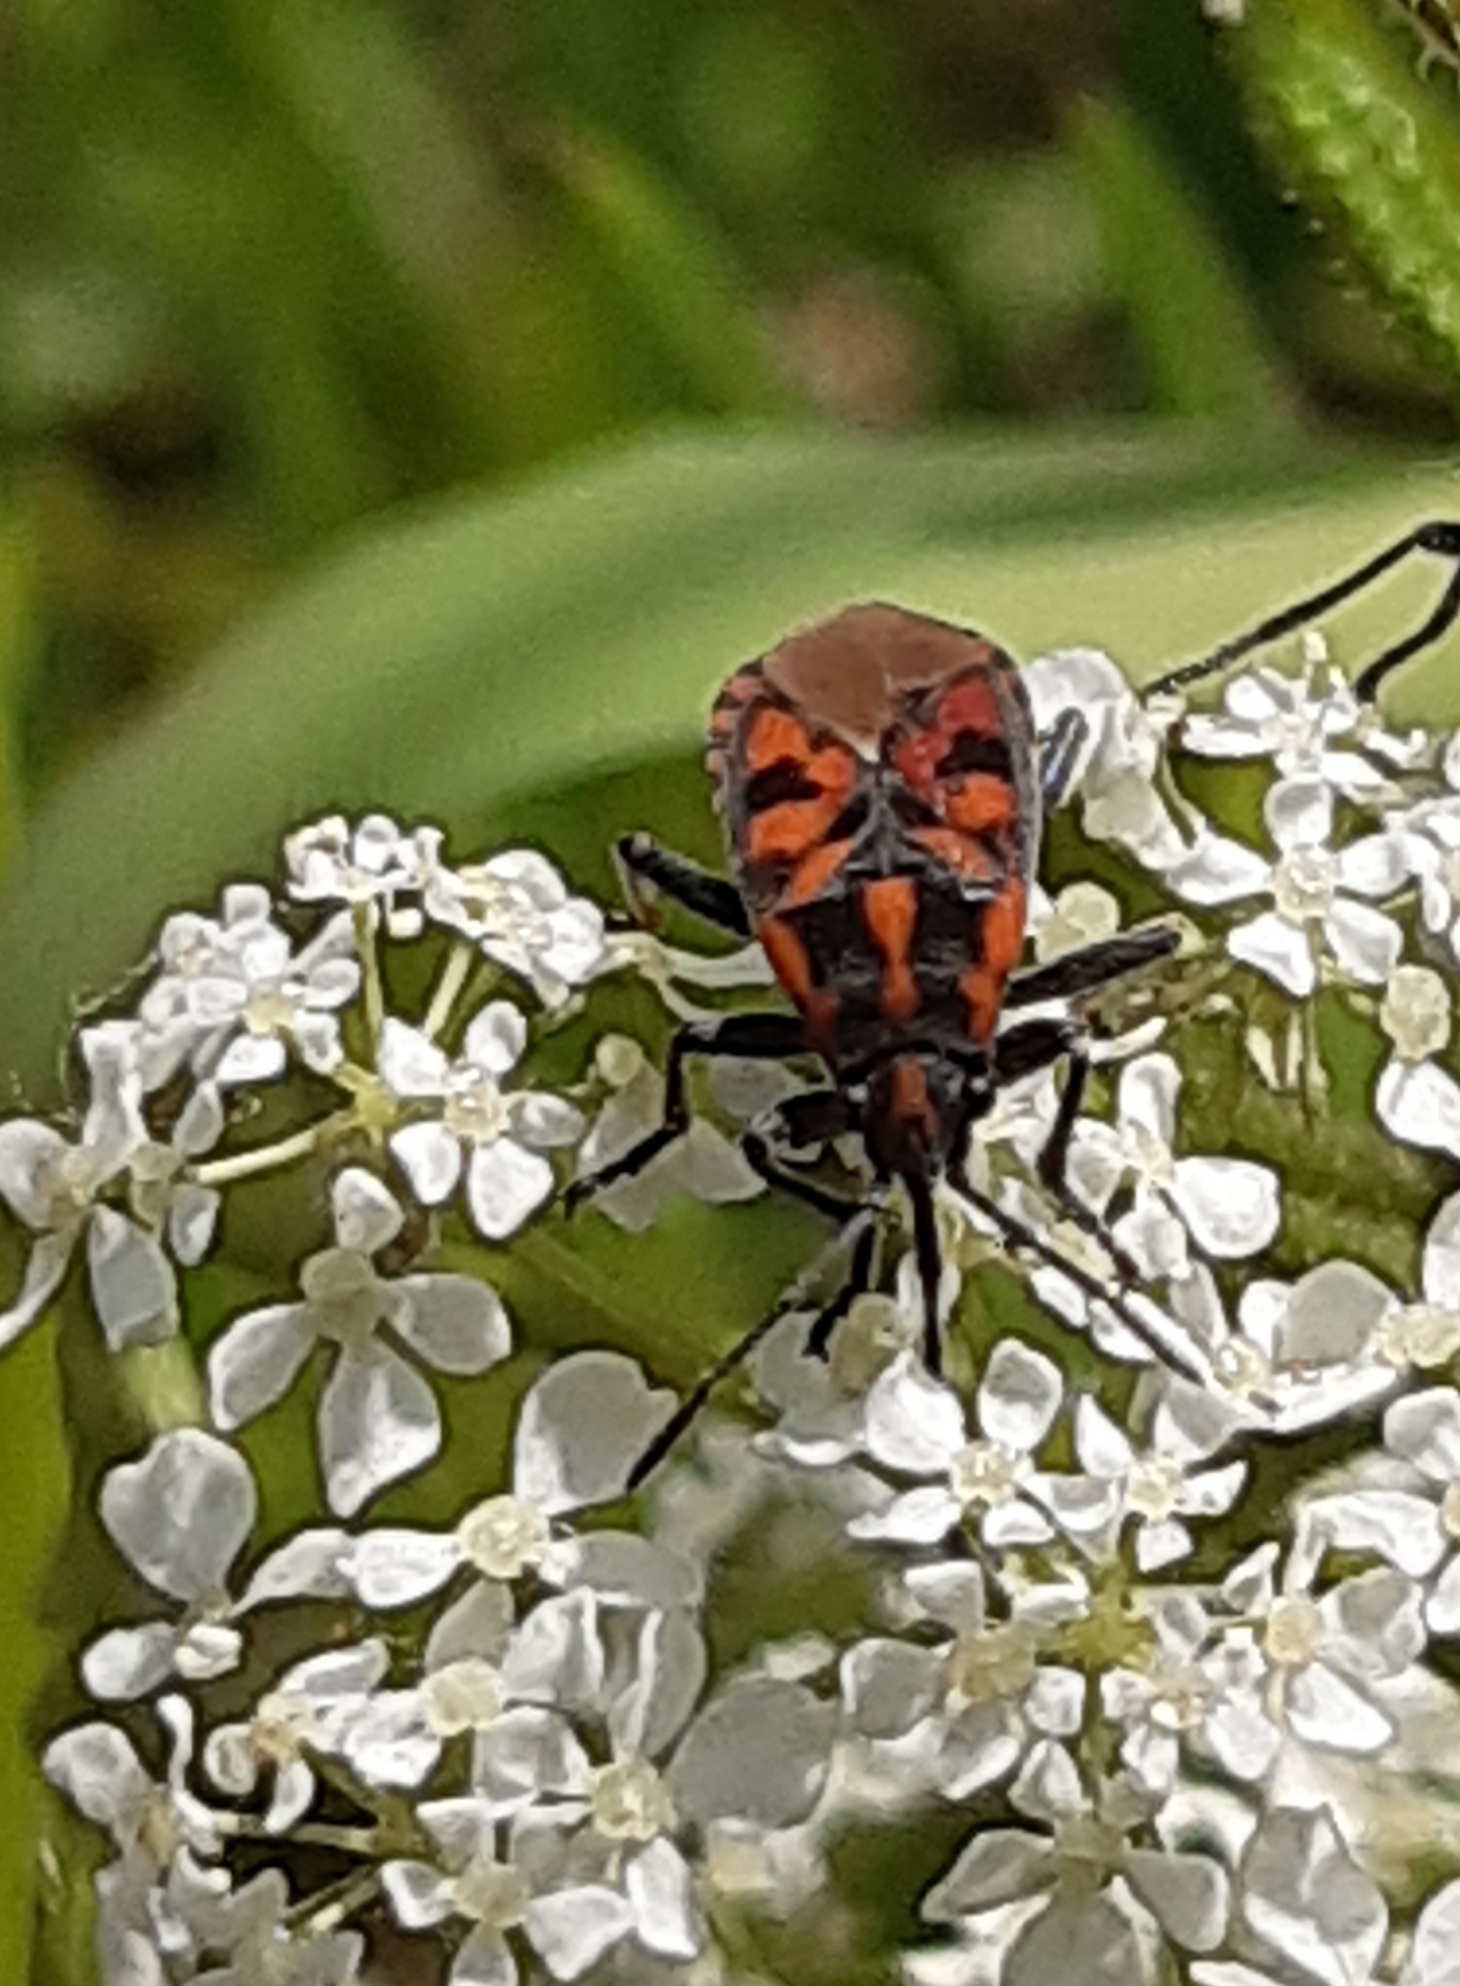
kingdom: Animalia
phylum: Arthropoda
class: Insecta
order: Hemiptera
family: Lygaeidae
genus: Spilostethus
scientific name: Spilostethus saxatilis
